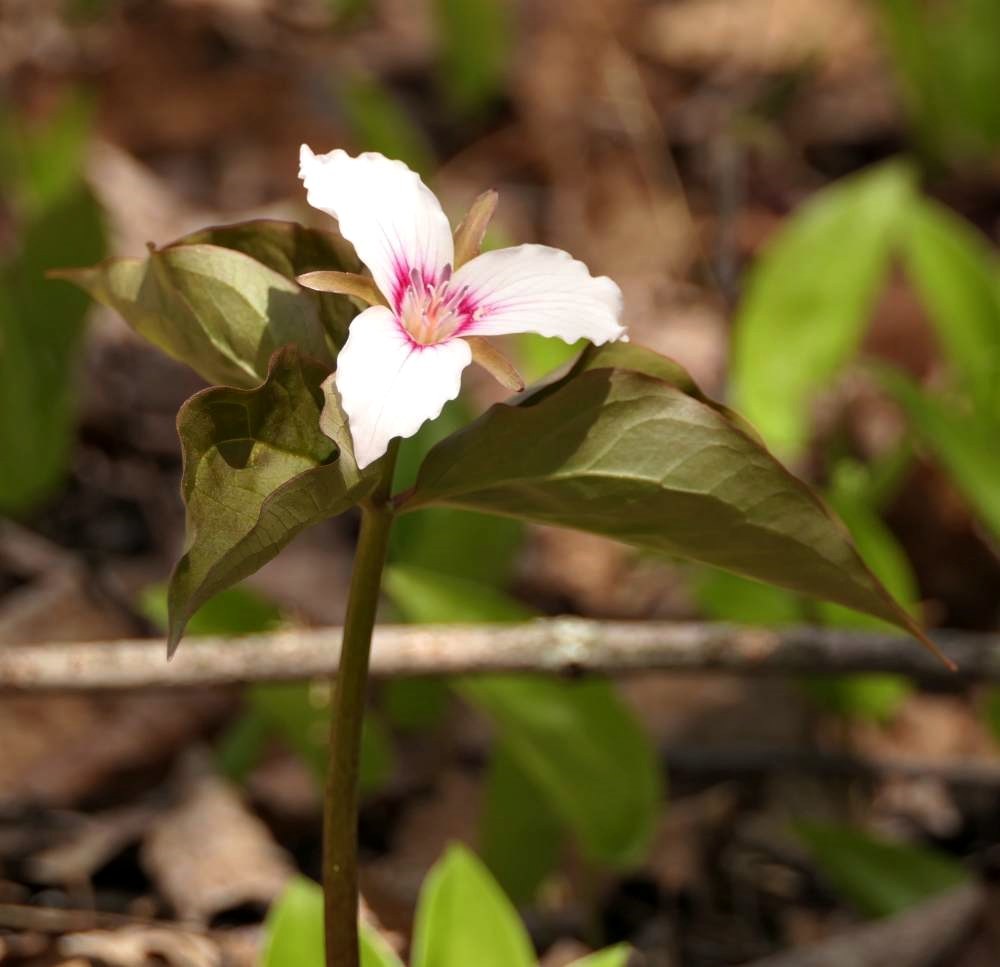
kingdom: Plantae
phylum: Tracheophyta
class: Liliopsida
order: Liliales
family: Melanthiaceae
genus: Trillium
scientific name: Trillium undulatum
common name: Paint trillium
